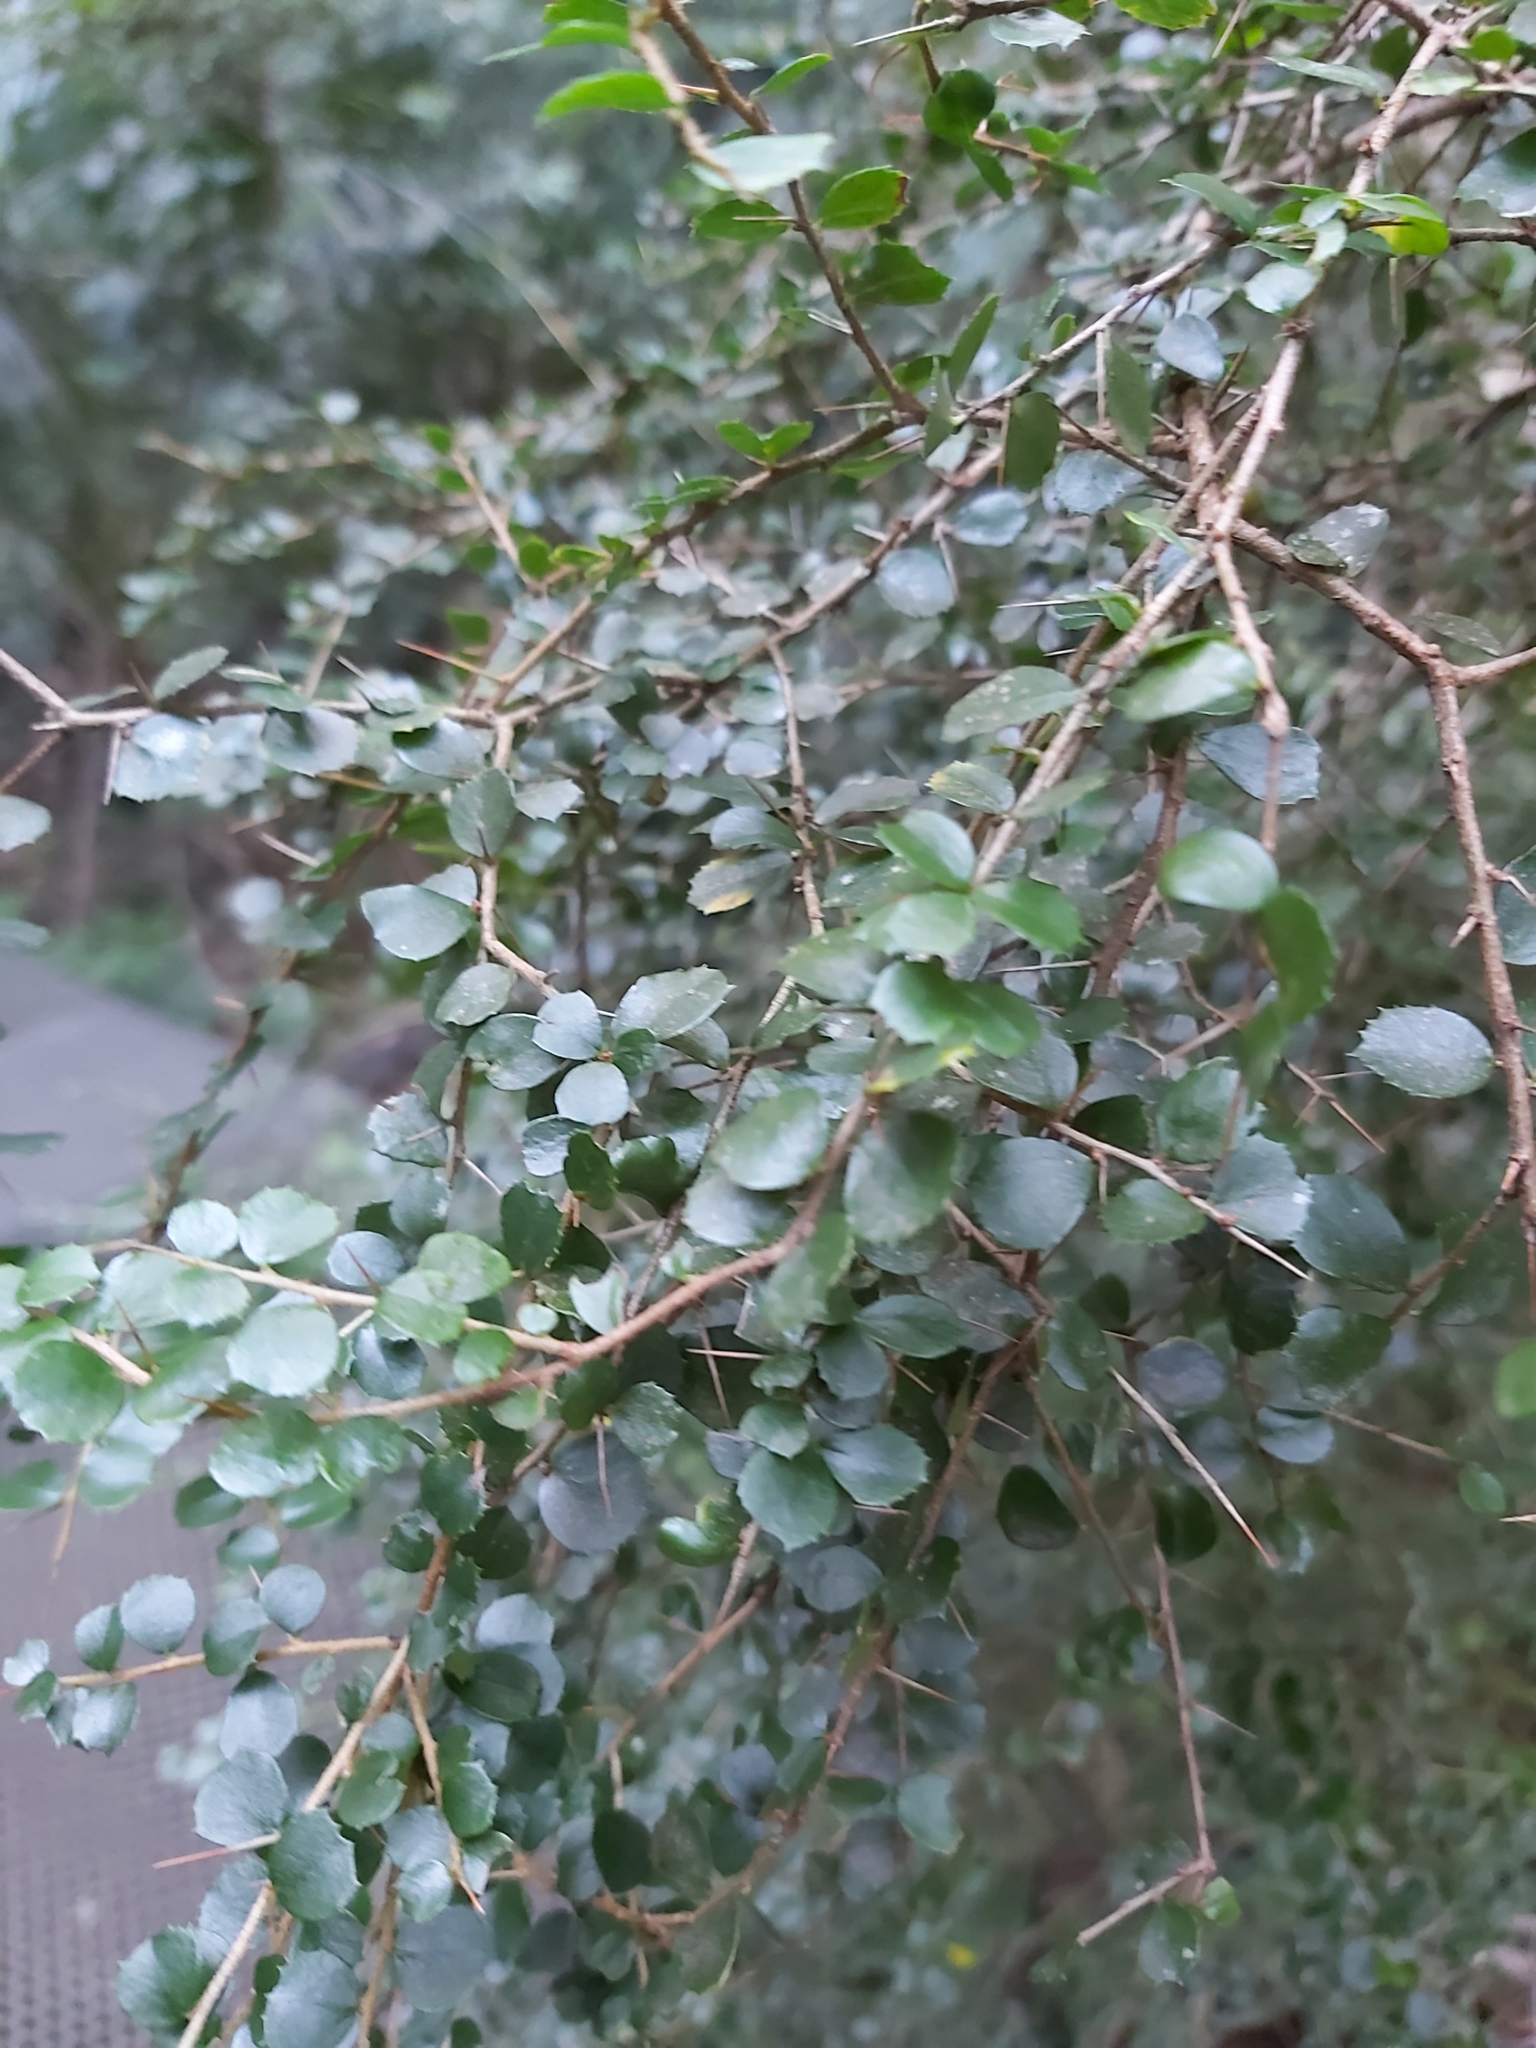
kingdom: Plantae
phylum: Tracheophyta
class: Magnoliopsida
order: Apiales
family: Pittosporaceae
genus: Pittosporum
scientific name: Pittosporum multiflorum
